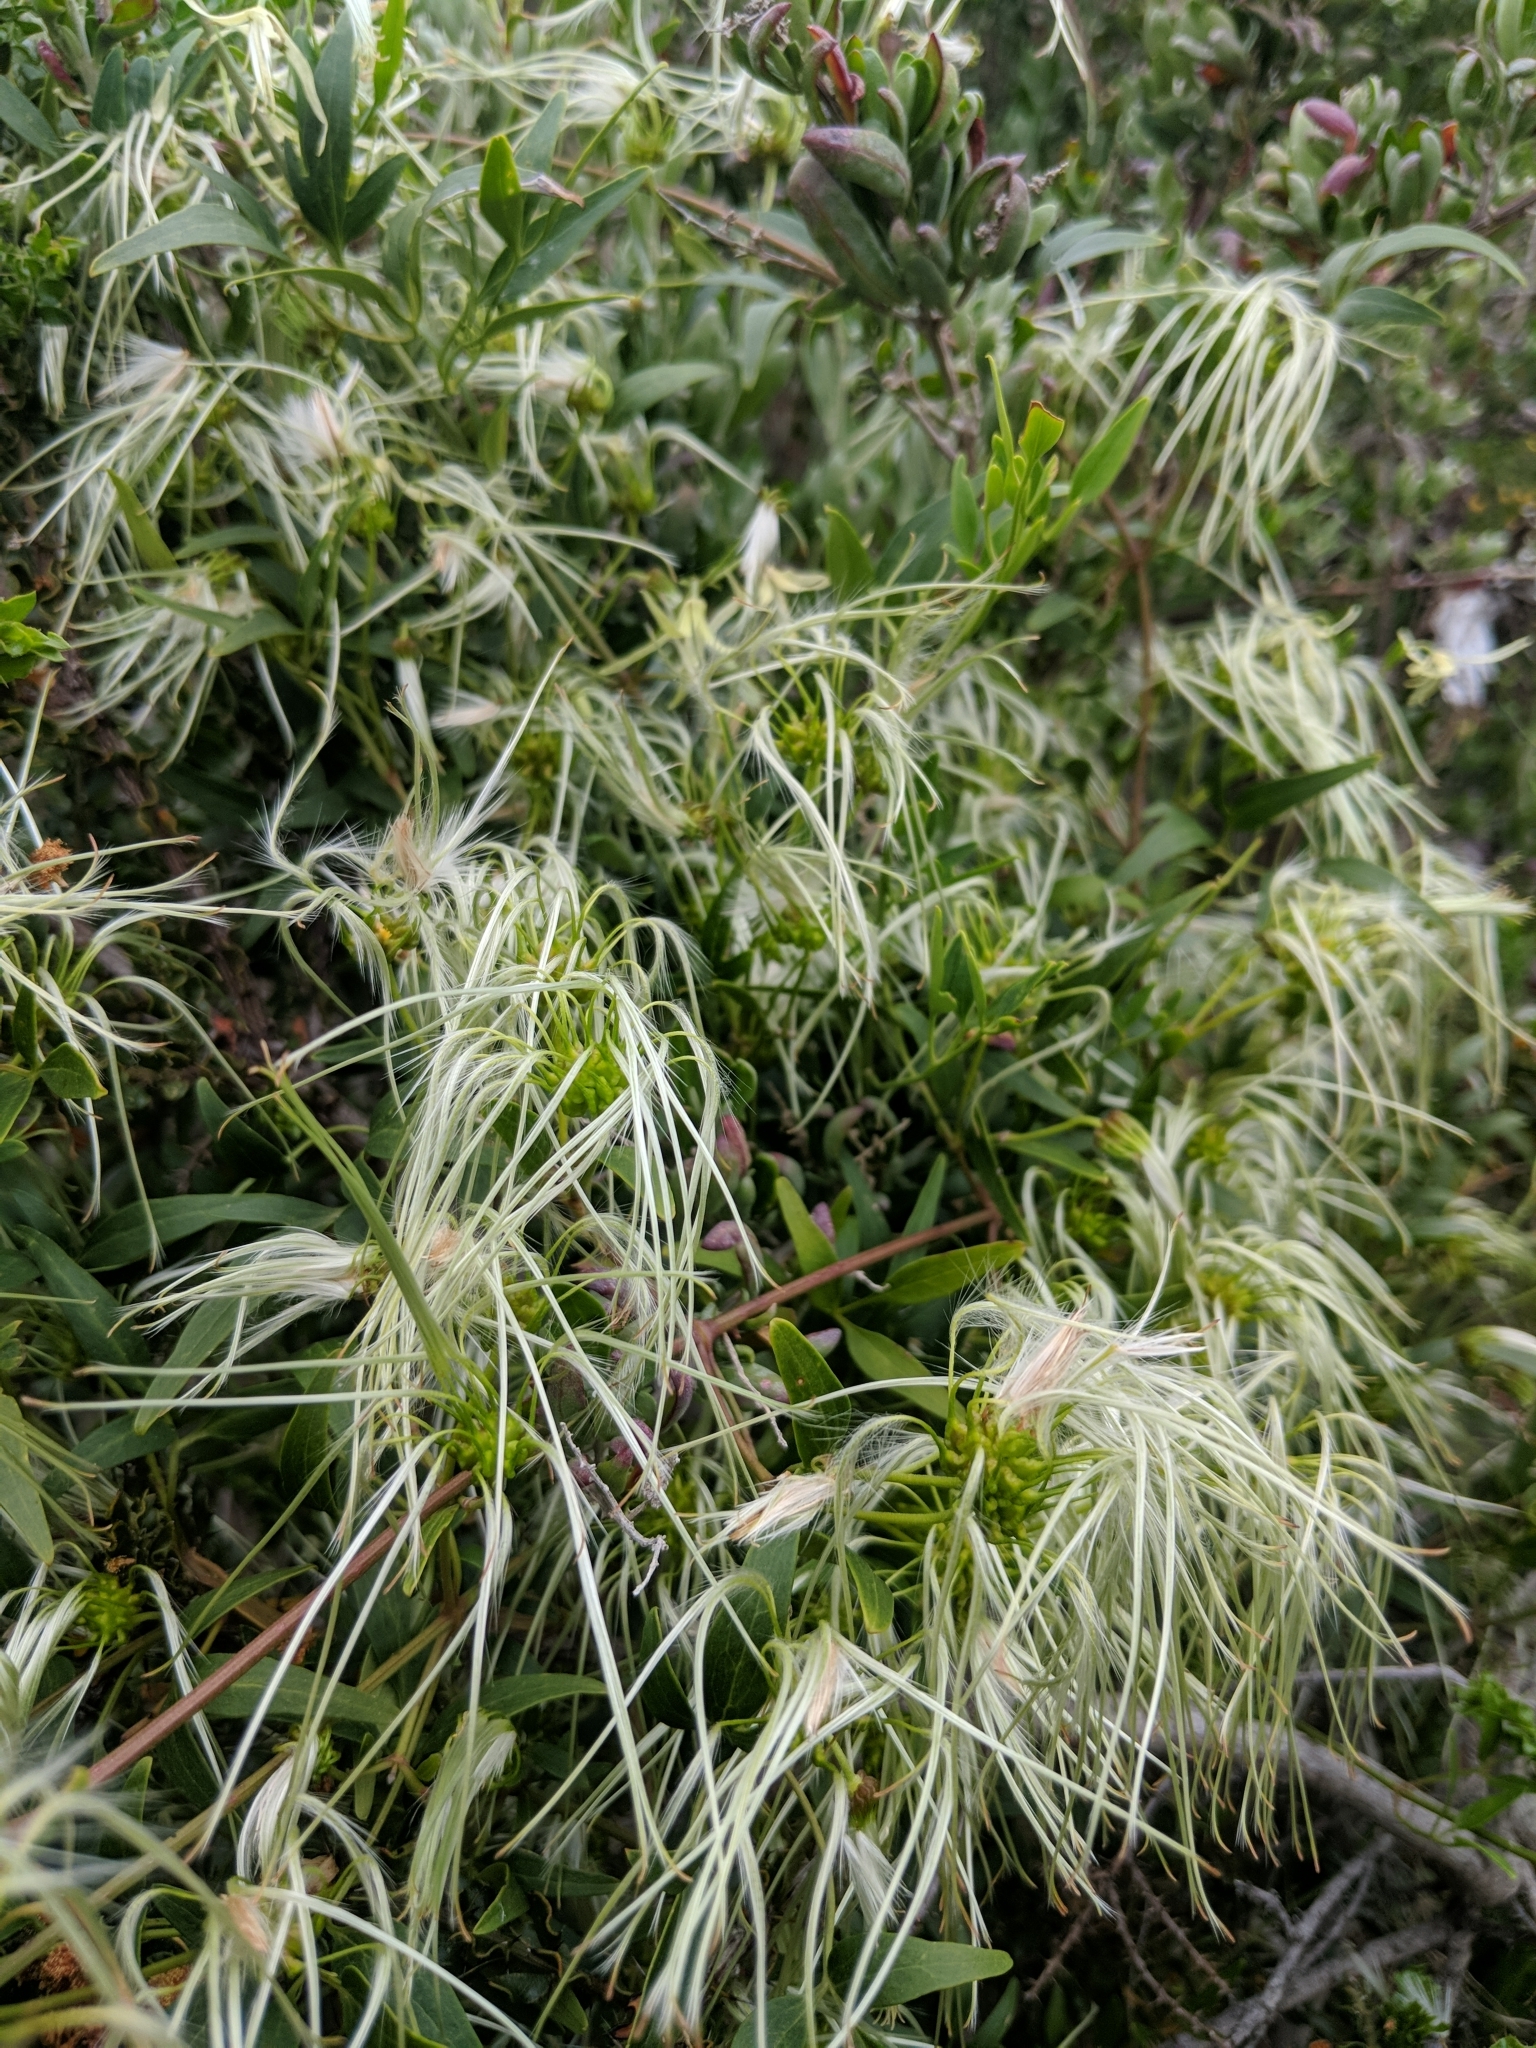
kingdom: Plantae
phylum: Tracheophyta
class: Magnoliopsida
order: Ranunculales
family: Ranunculaceae
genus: Clematis
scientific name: Clematis microphylla
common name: Headachevine
